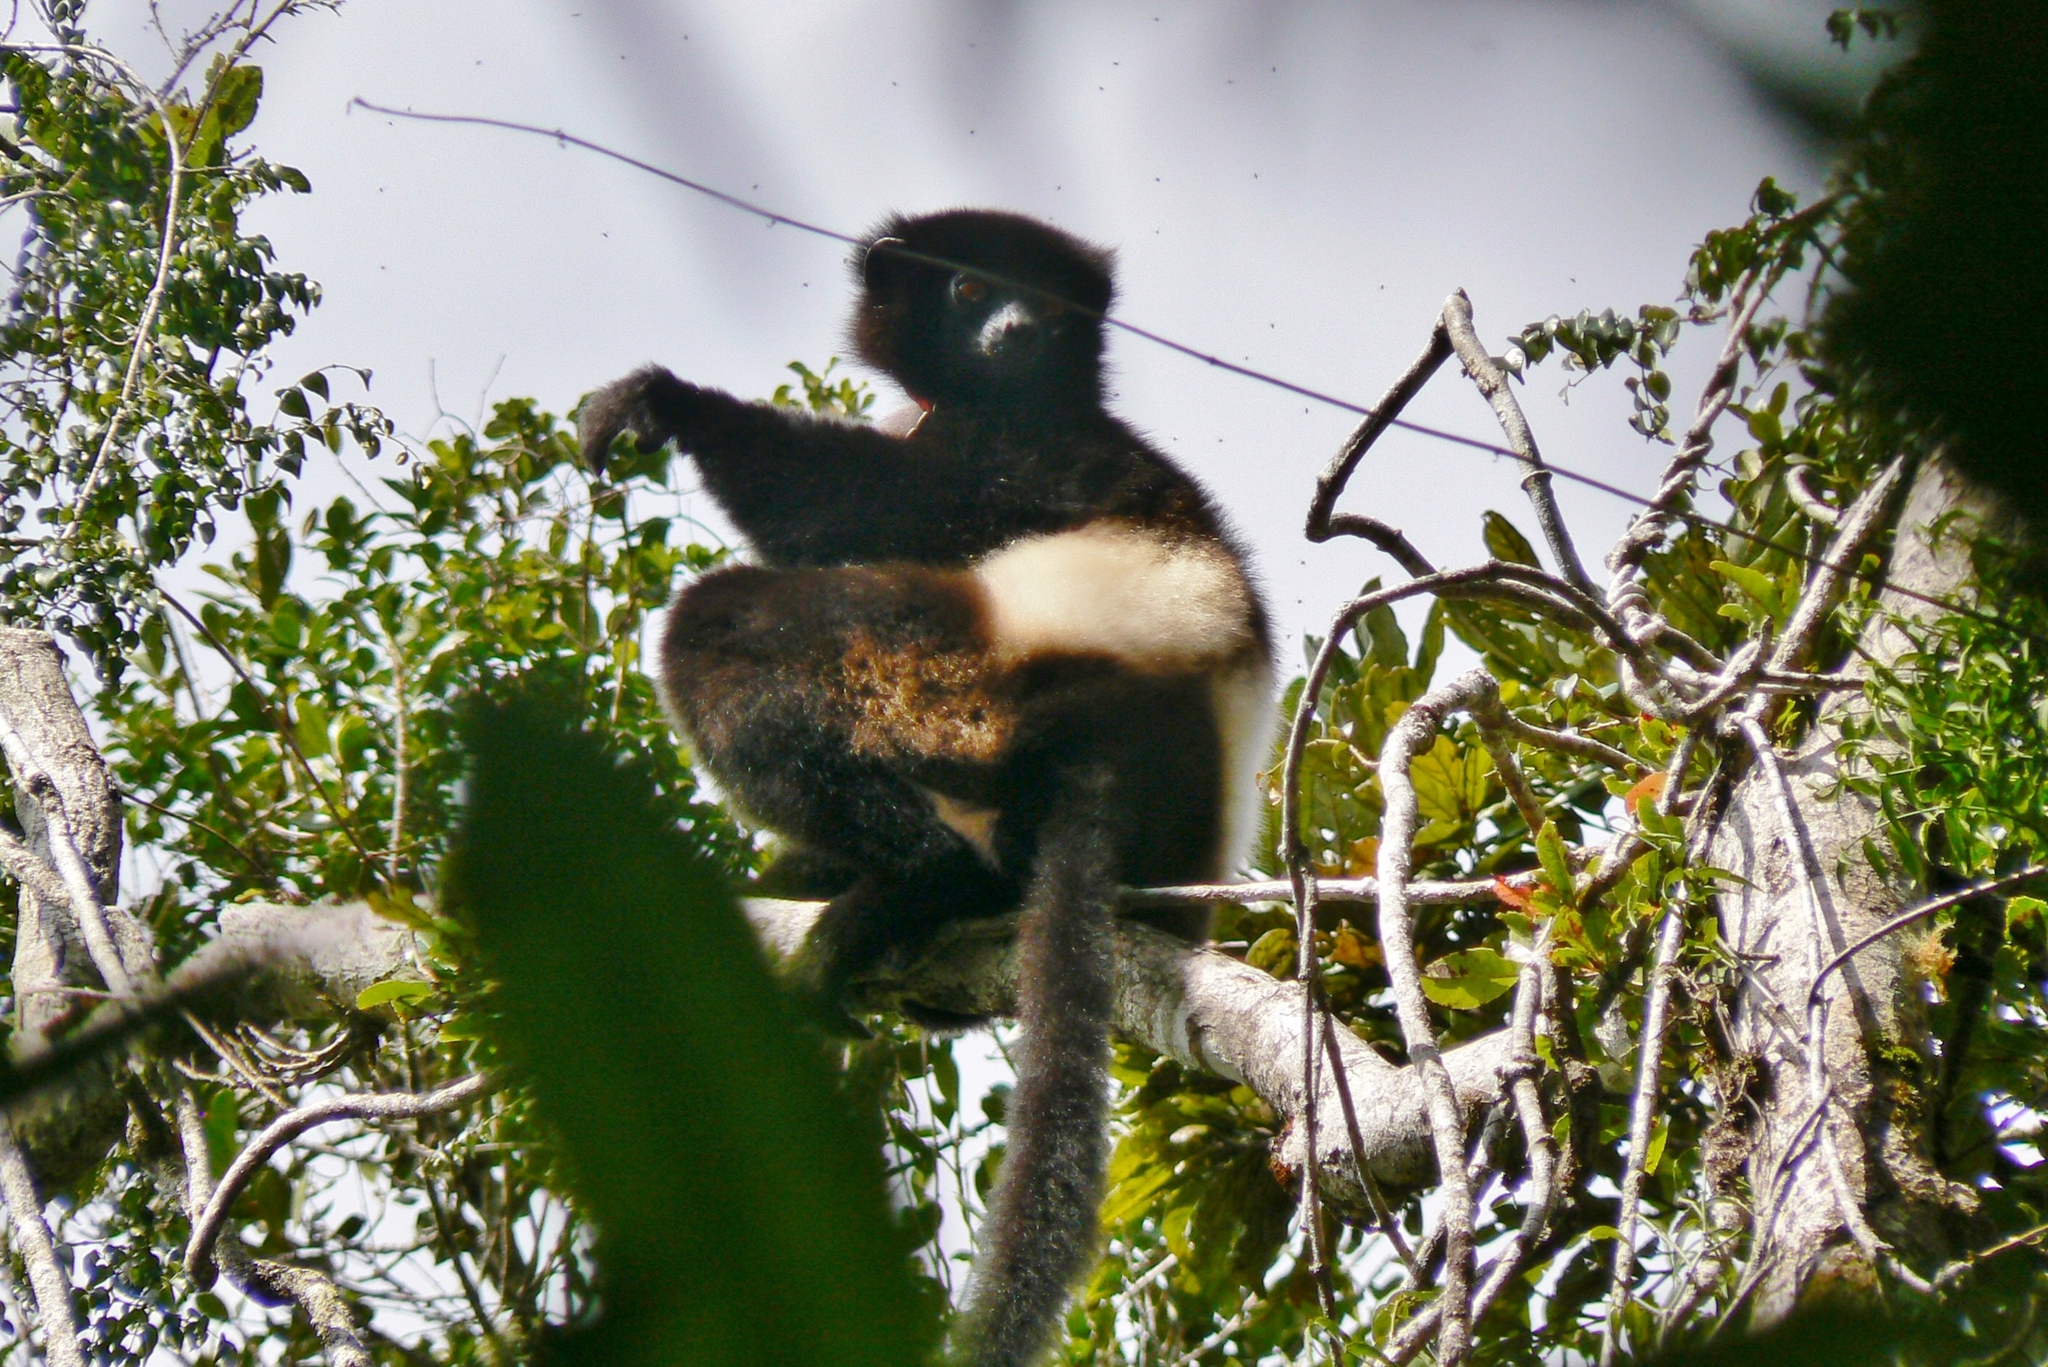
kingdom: Animalia
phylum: Chordata
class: Mammalia
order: Primates
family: Indriidae
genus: Propithecus
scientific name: Propithecus edwardsi
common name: Milne-edwards’s simpona
